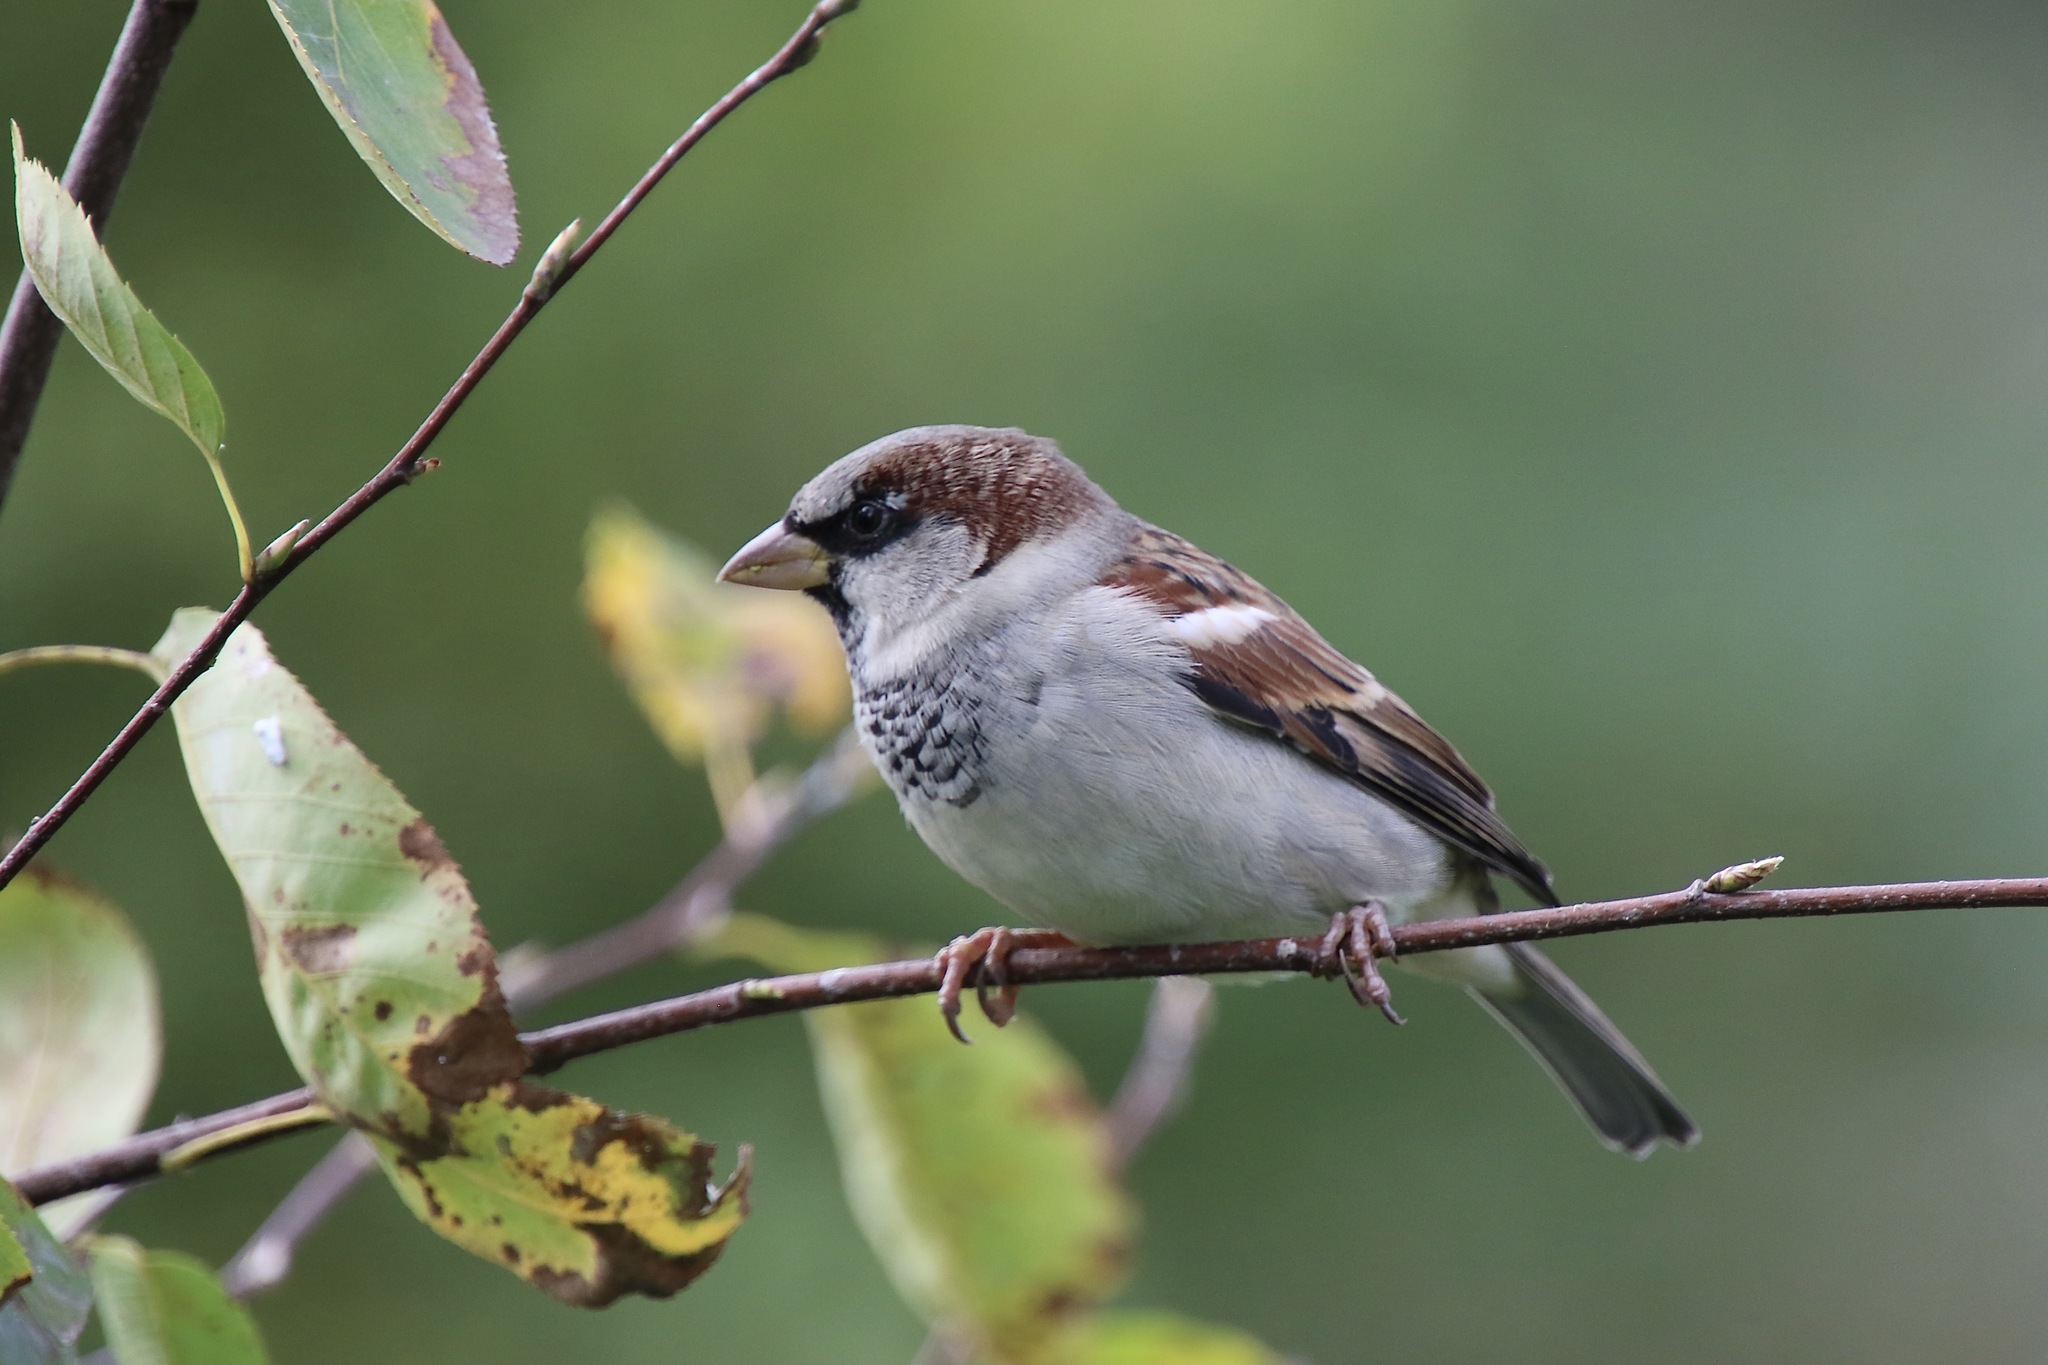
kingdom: Animalia
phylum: Chordata
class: Aves
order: Passeriformes
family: Passeridae
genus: Passer
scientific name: Passer domesticus
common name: House sparrow
